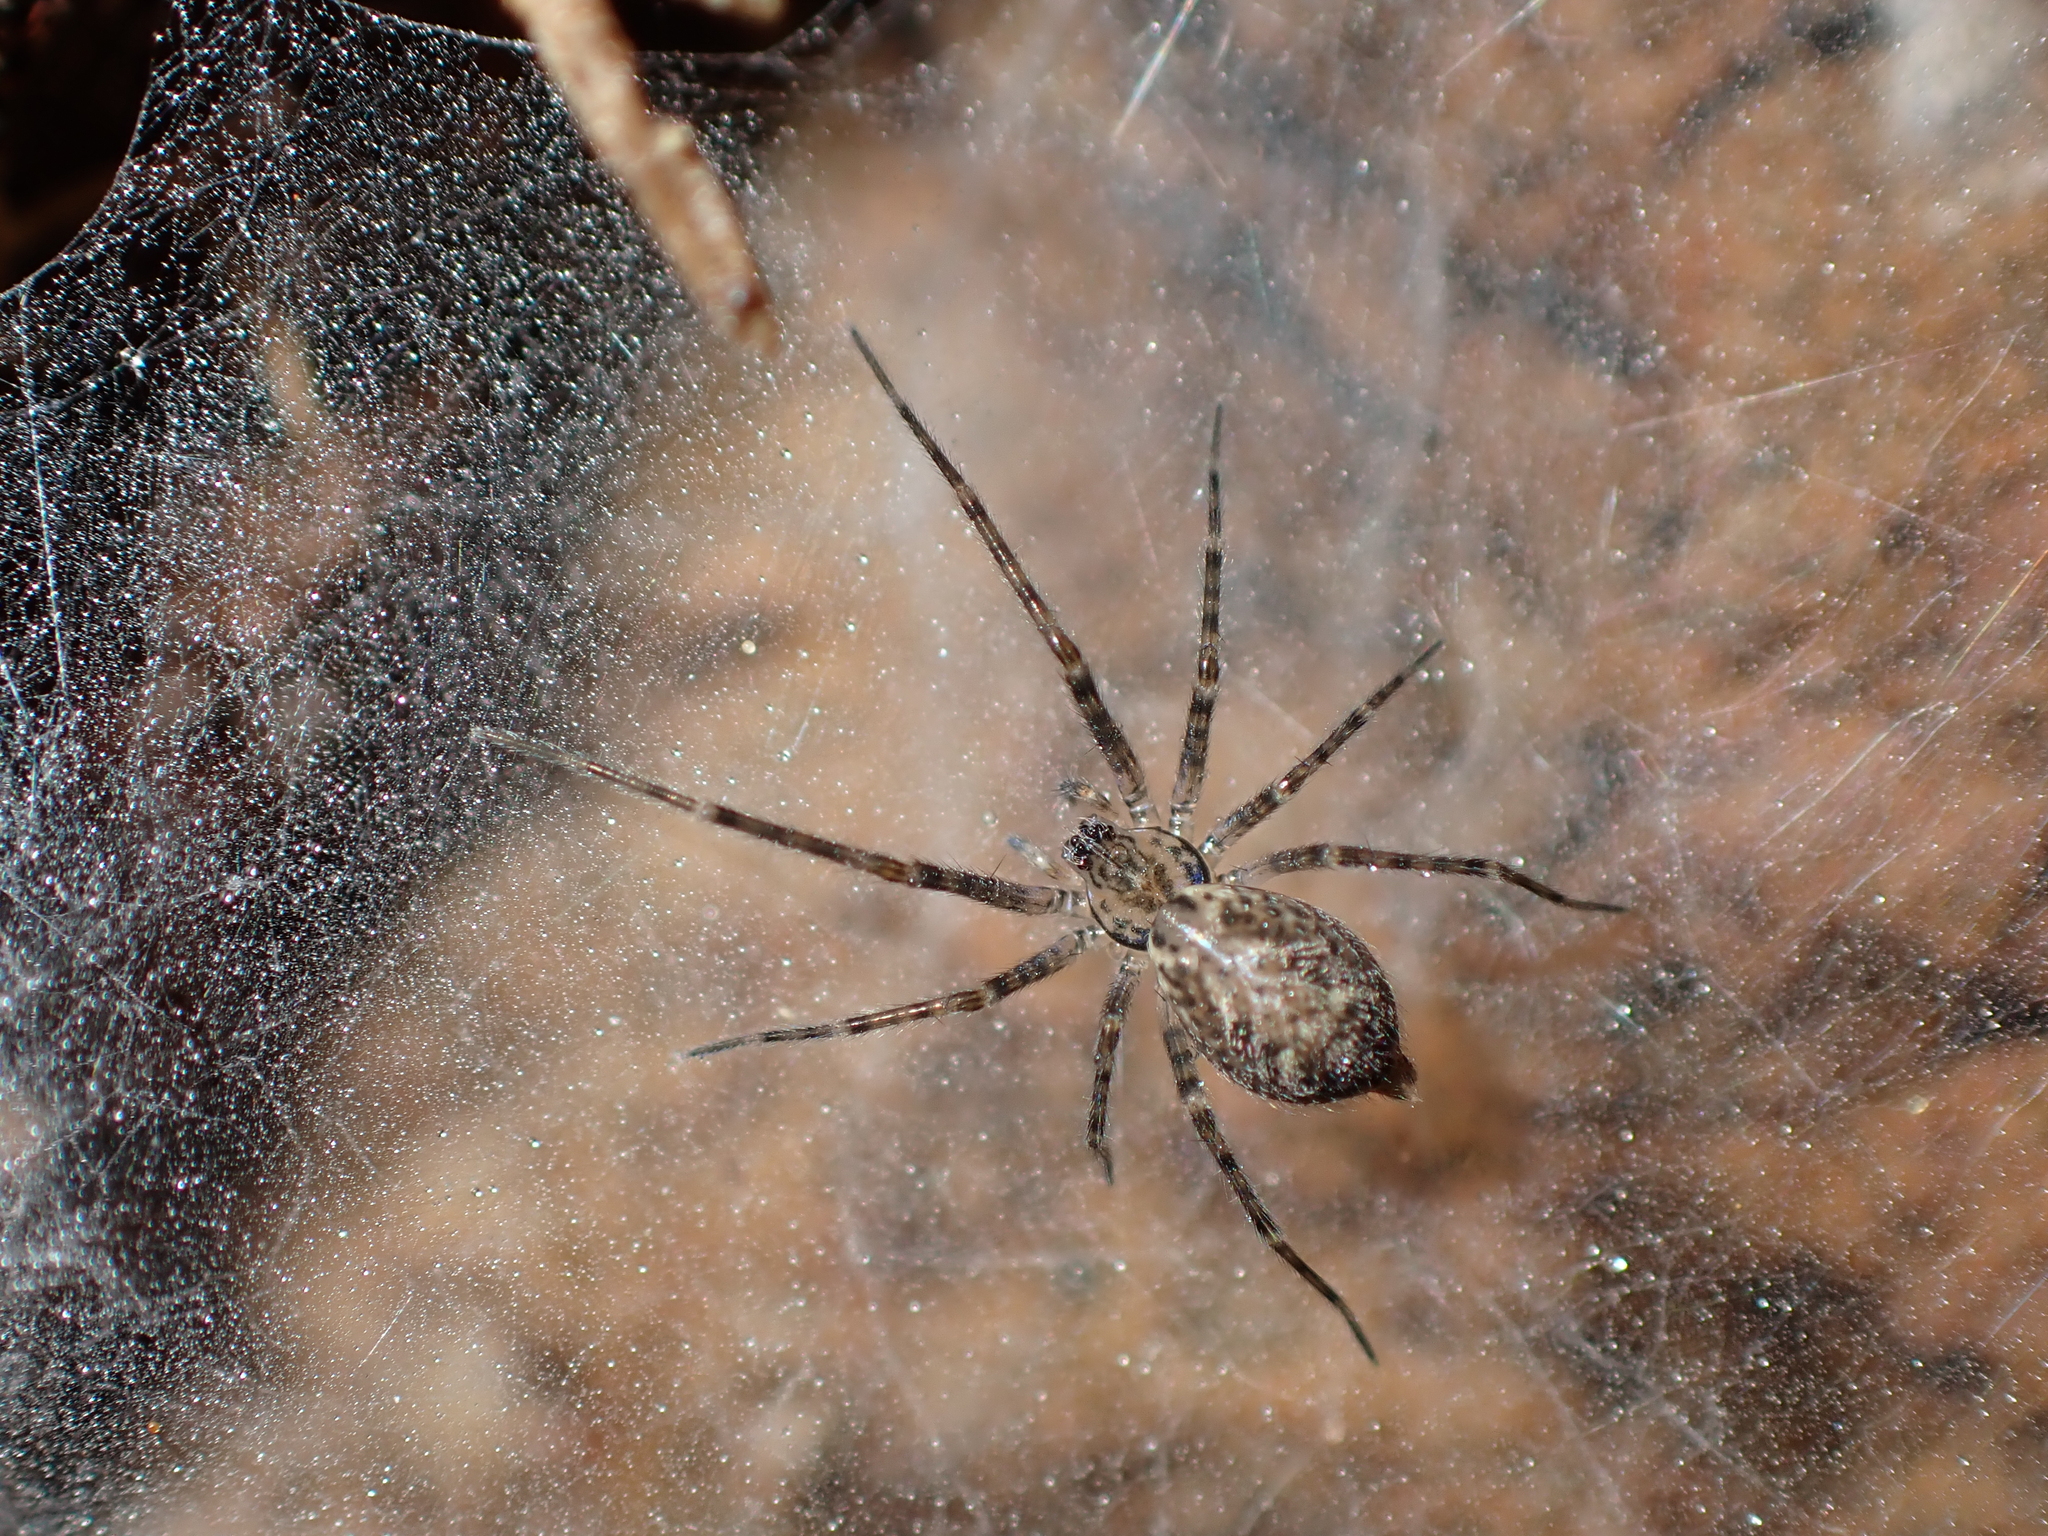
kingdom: Animalia
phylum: Arthropoda
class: Arachnida
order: Araneae
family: Stiphidiidae
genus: Stiphidion
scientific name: Stiphidion facetum
